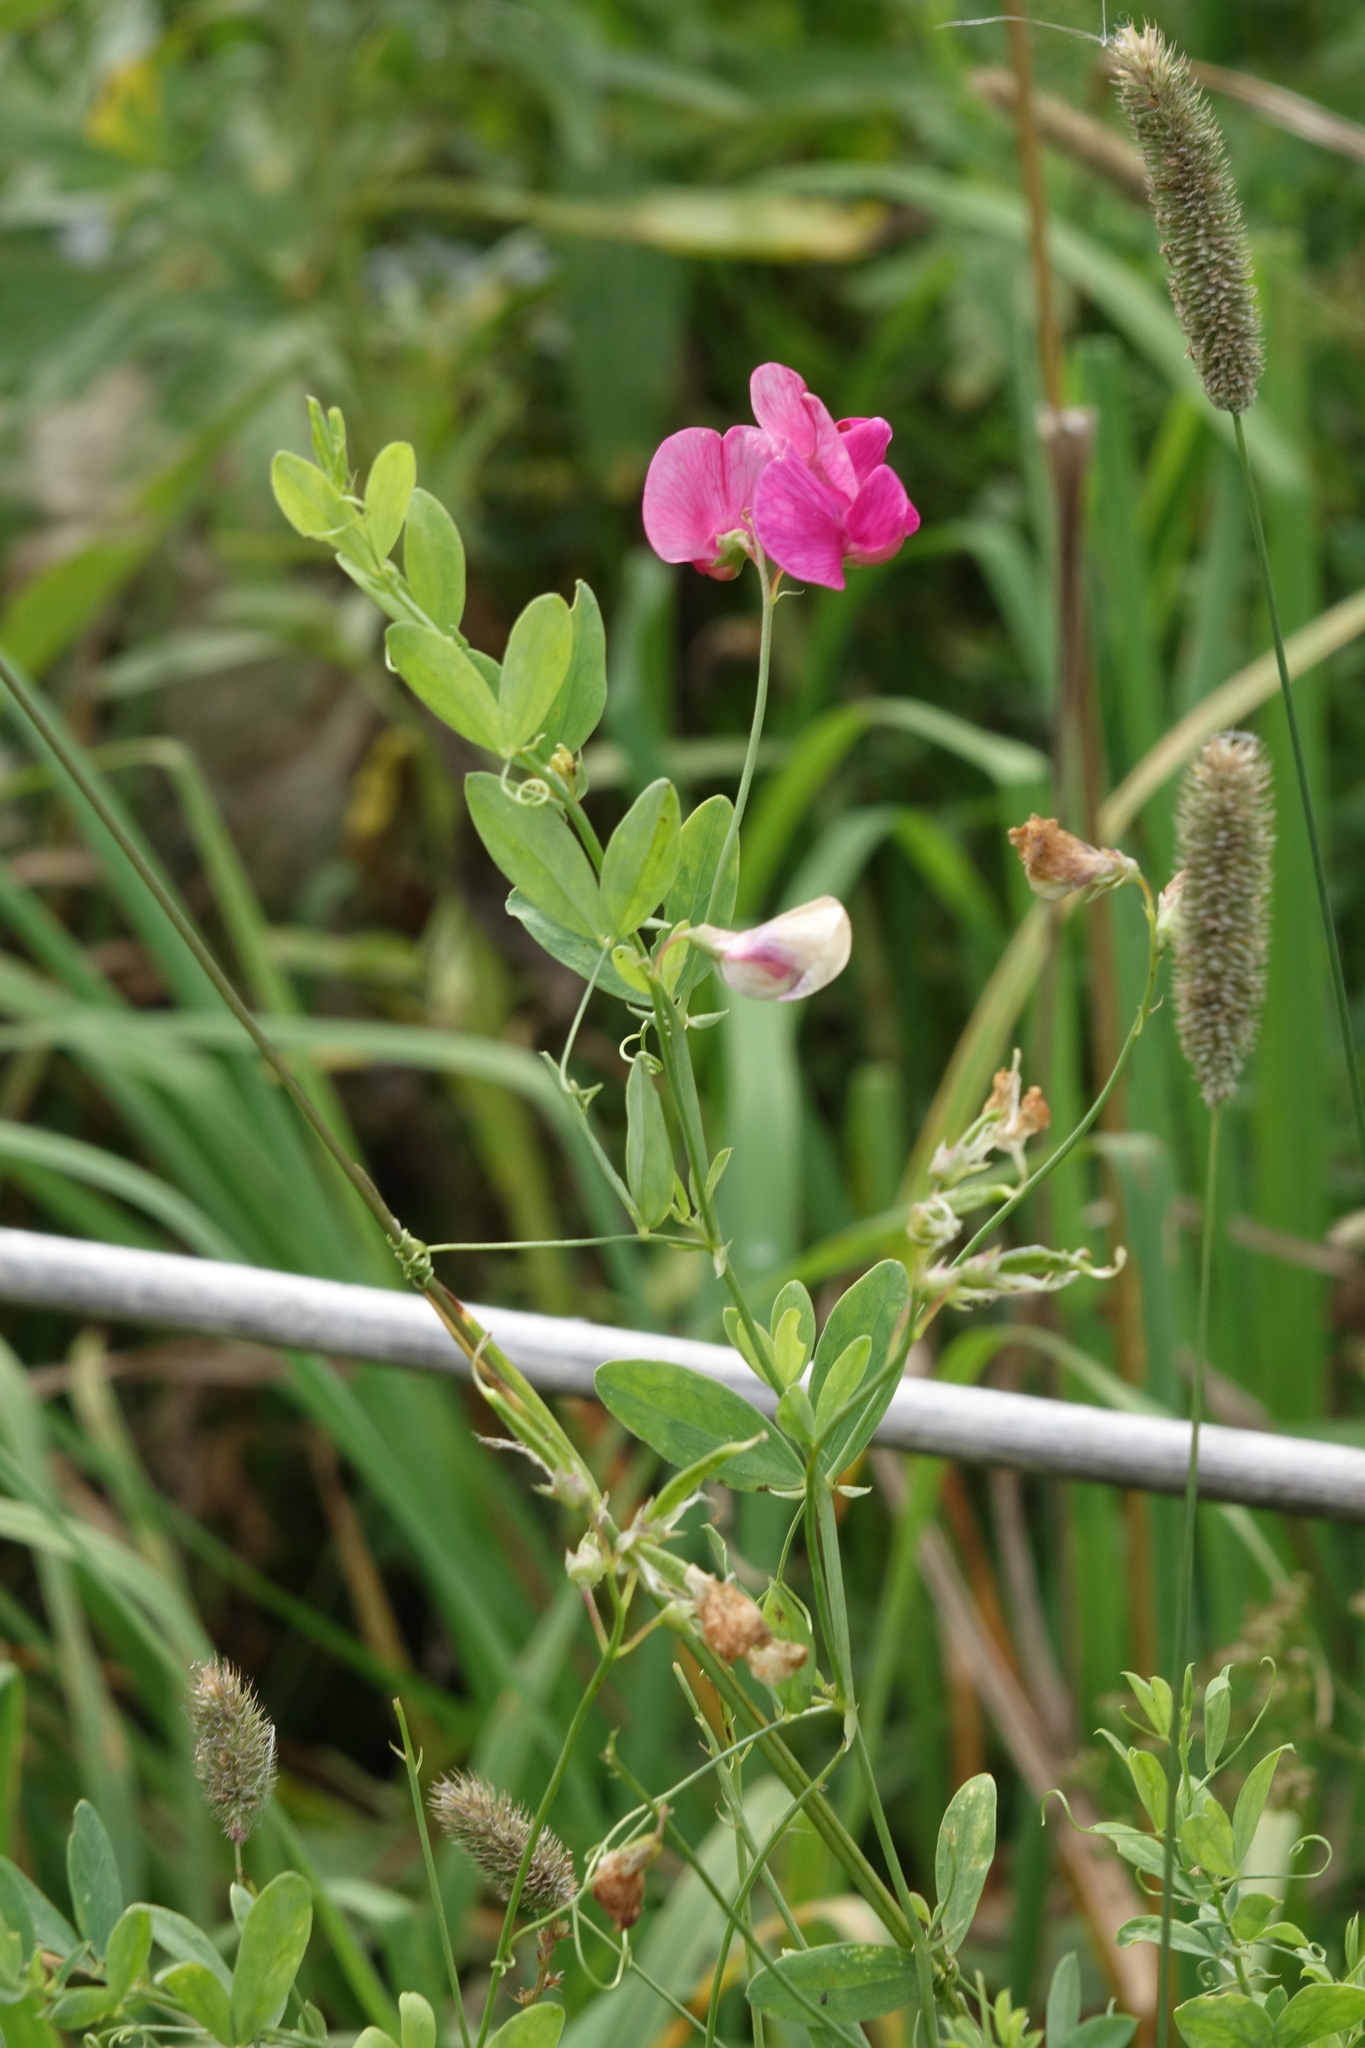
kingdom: Plantae
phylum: Tracheophyta
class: Magnoliopsida
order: Fabales
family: Fabaceae
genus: Lathyrus
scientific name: Lathyrus tuberosus
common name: Tuberous pea
